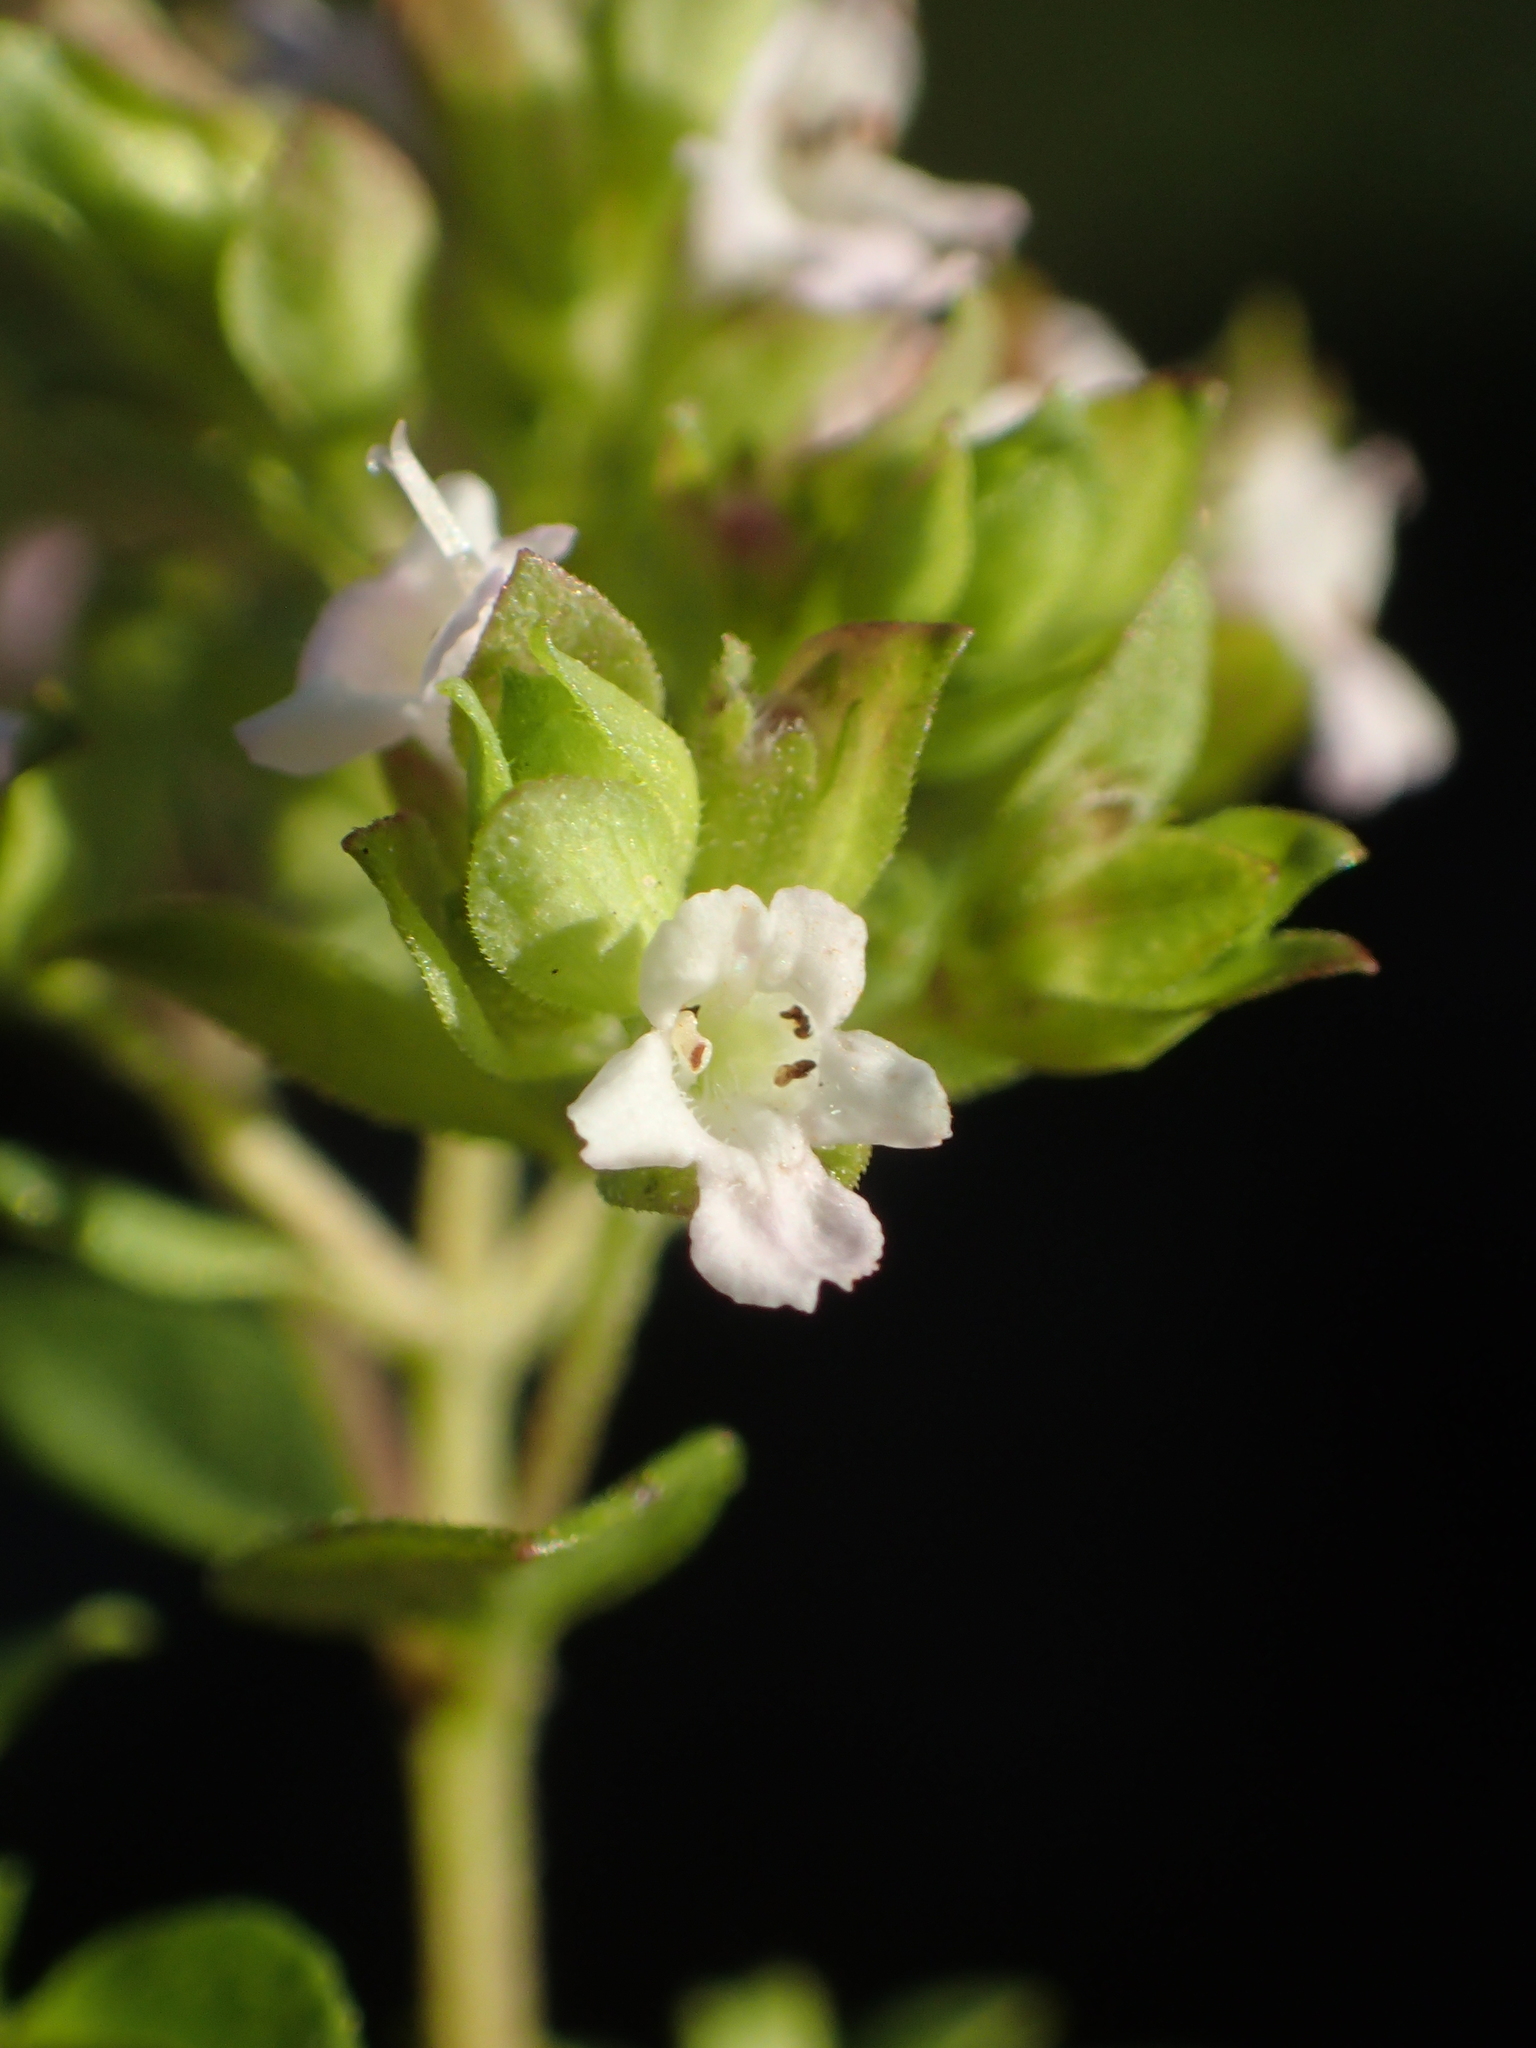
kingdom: Plantae
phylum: Tracheophyta
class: Magnoliopsida
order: Lamiales
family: Lamiaceae
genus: Origanum
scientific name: Origanum vulgare
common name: Wild marjoram
